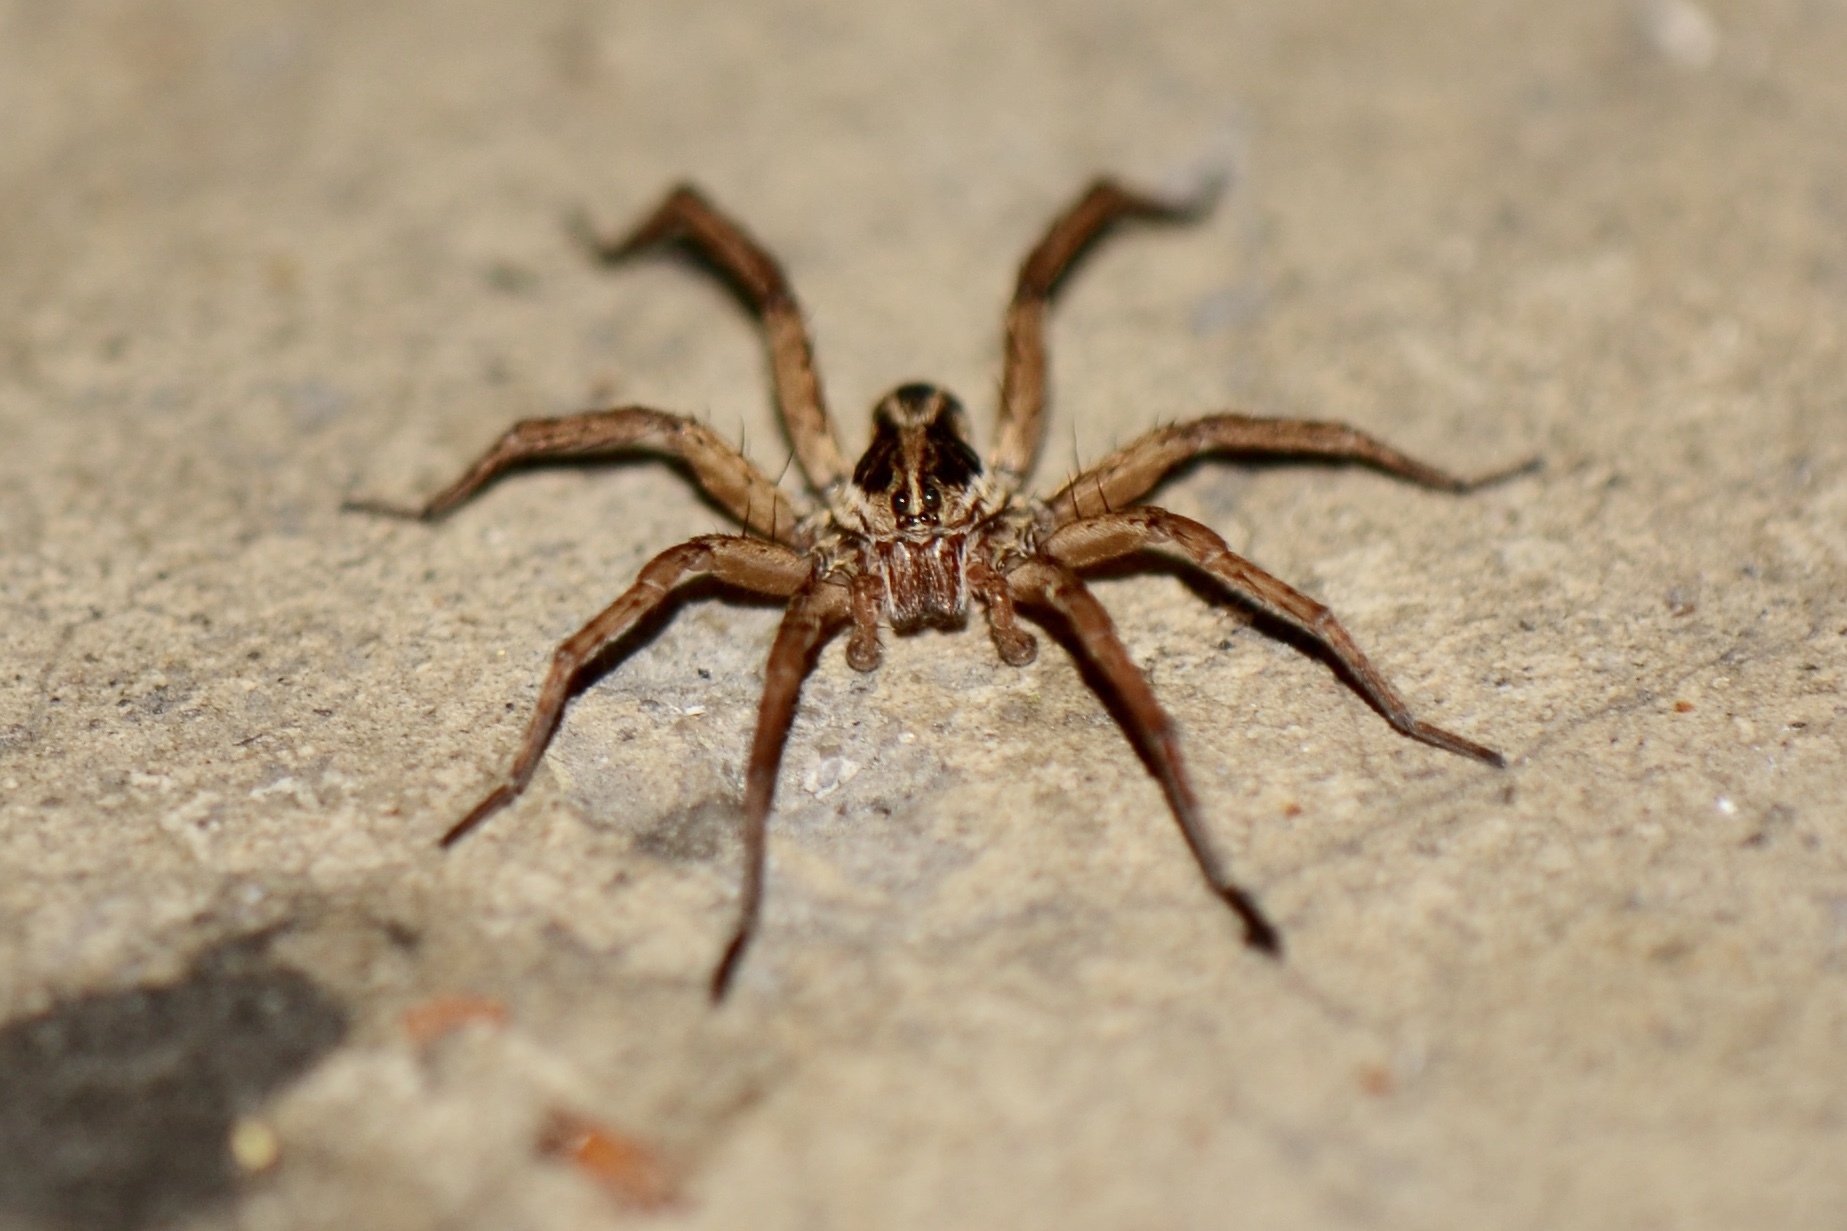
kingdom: Animalia
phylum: Arthropoda
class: Arachnida
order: Araneae
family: Lycosidae
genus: Tigrosa
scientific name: Tigrosa annexa
